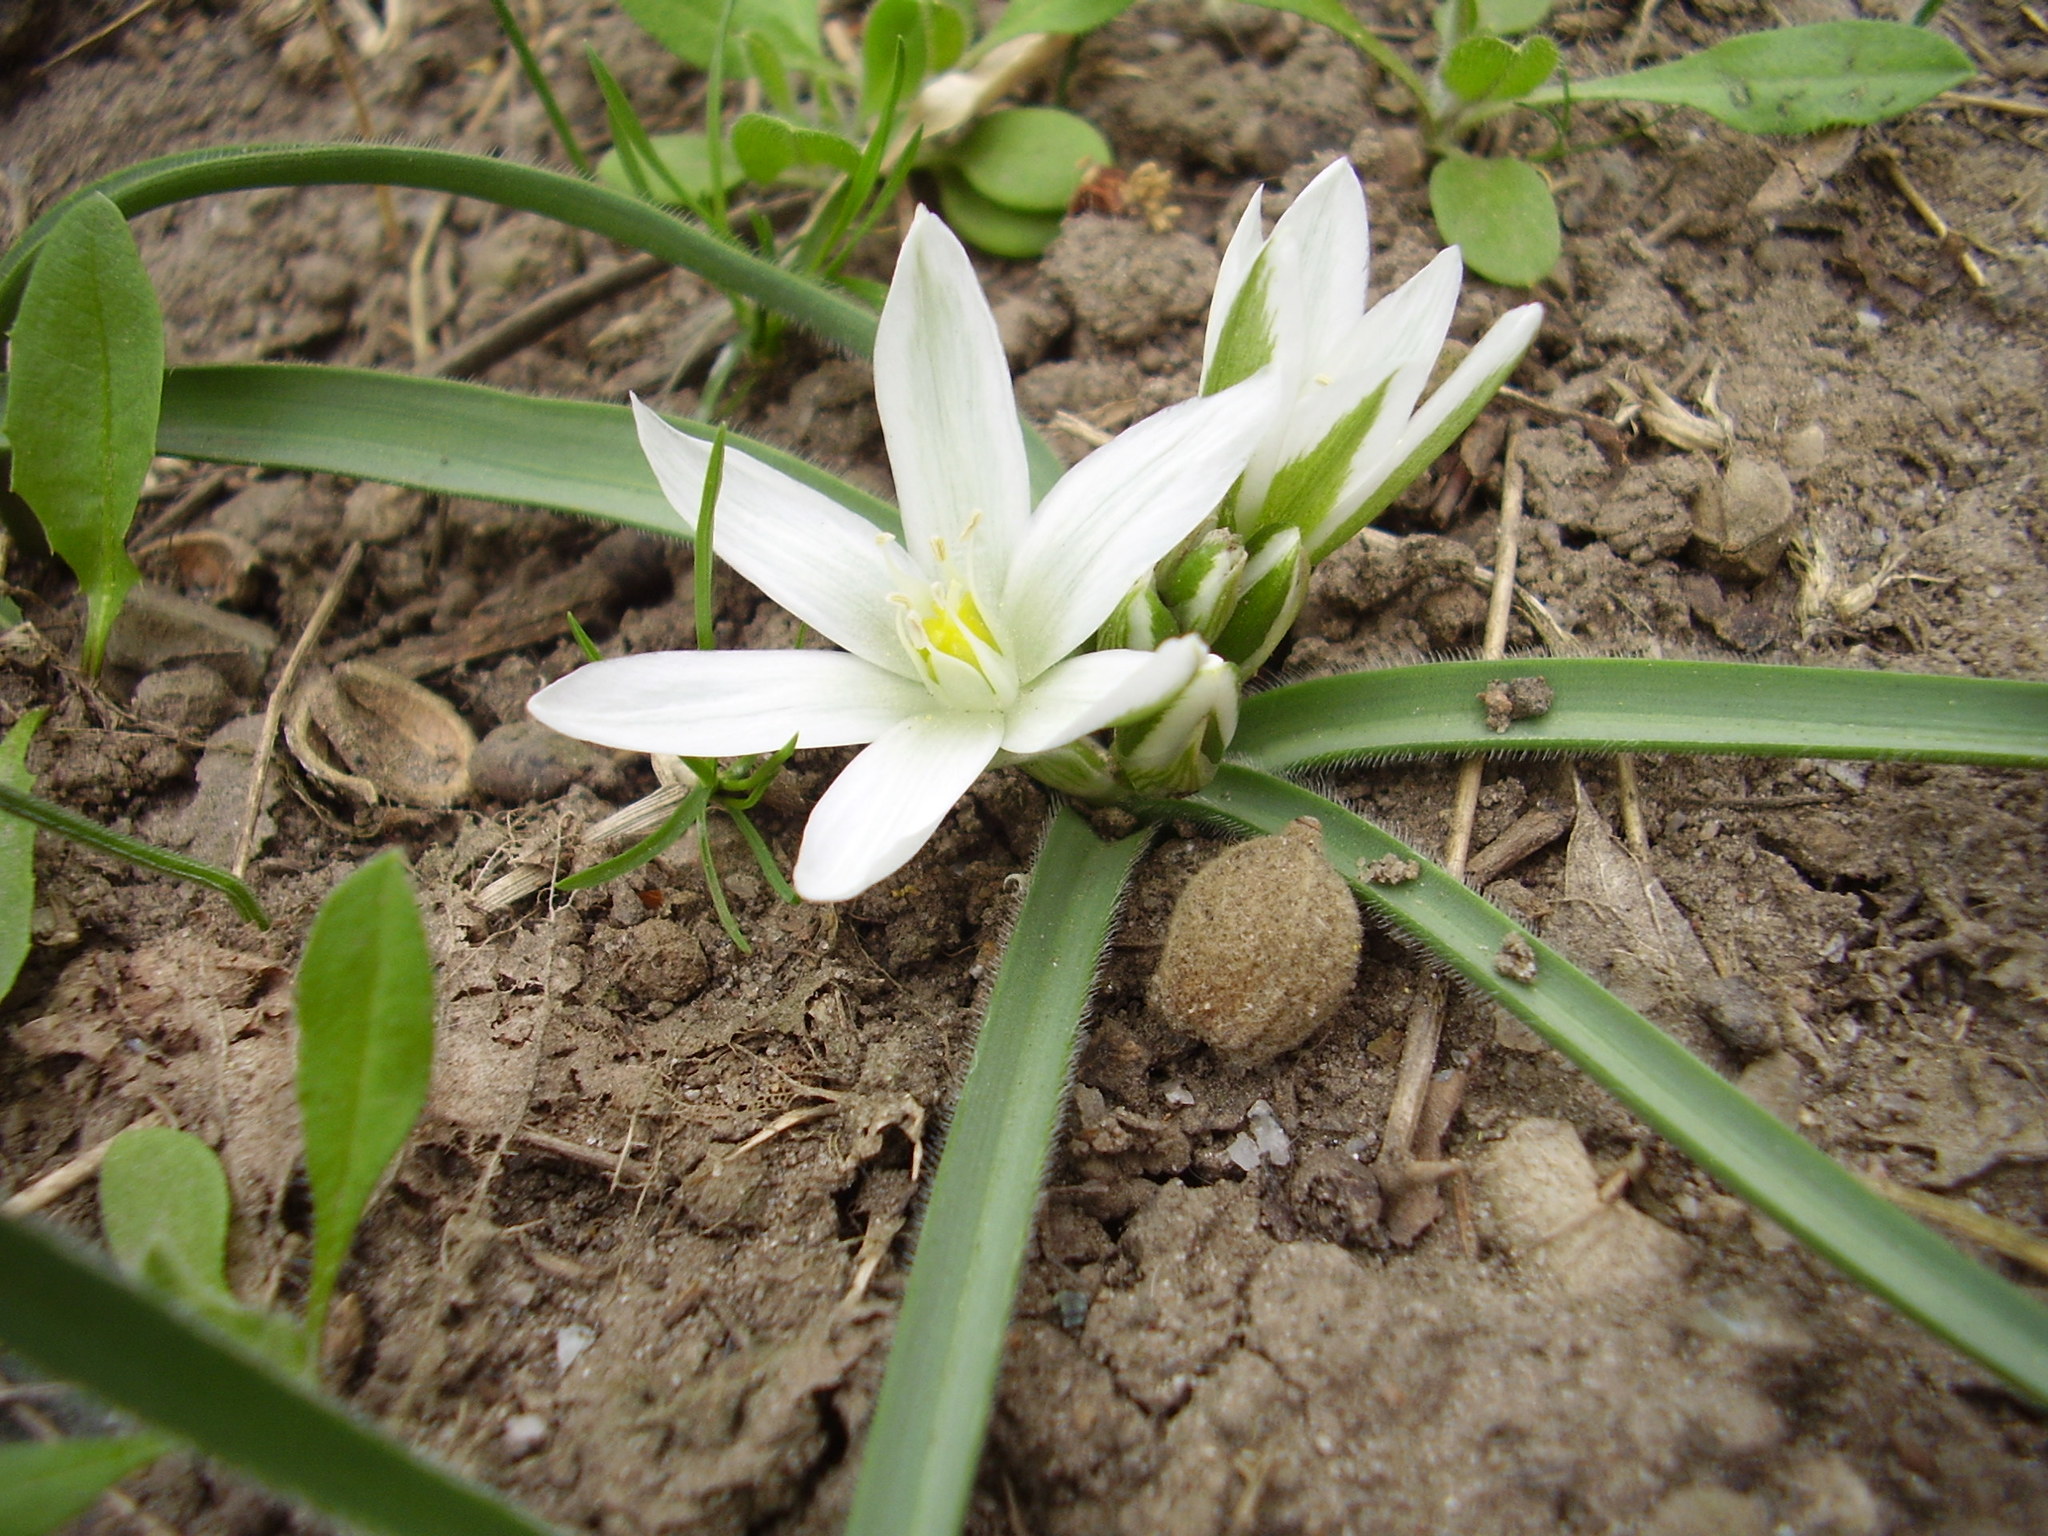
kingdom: Plantae
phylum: Tracheophyta
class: Liliopsida
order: Asparagales
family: Asparagaceae
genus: Ornithogalum
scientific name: Ornithogalum fimbriatum
